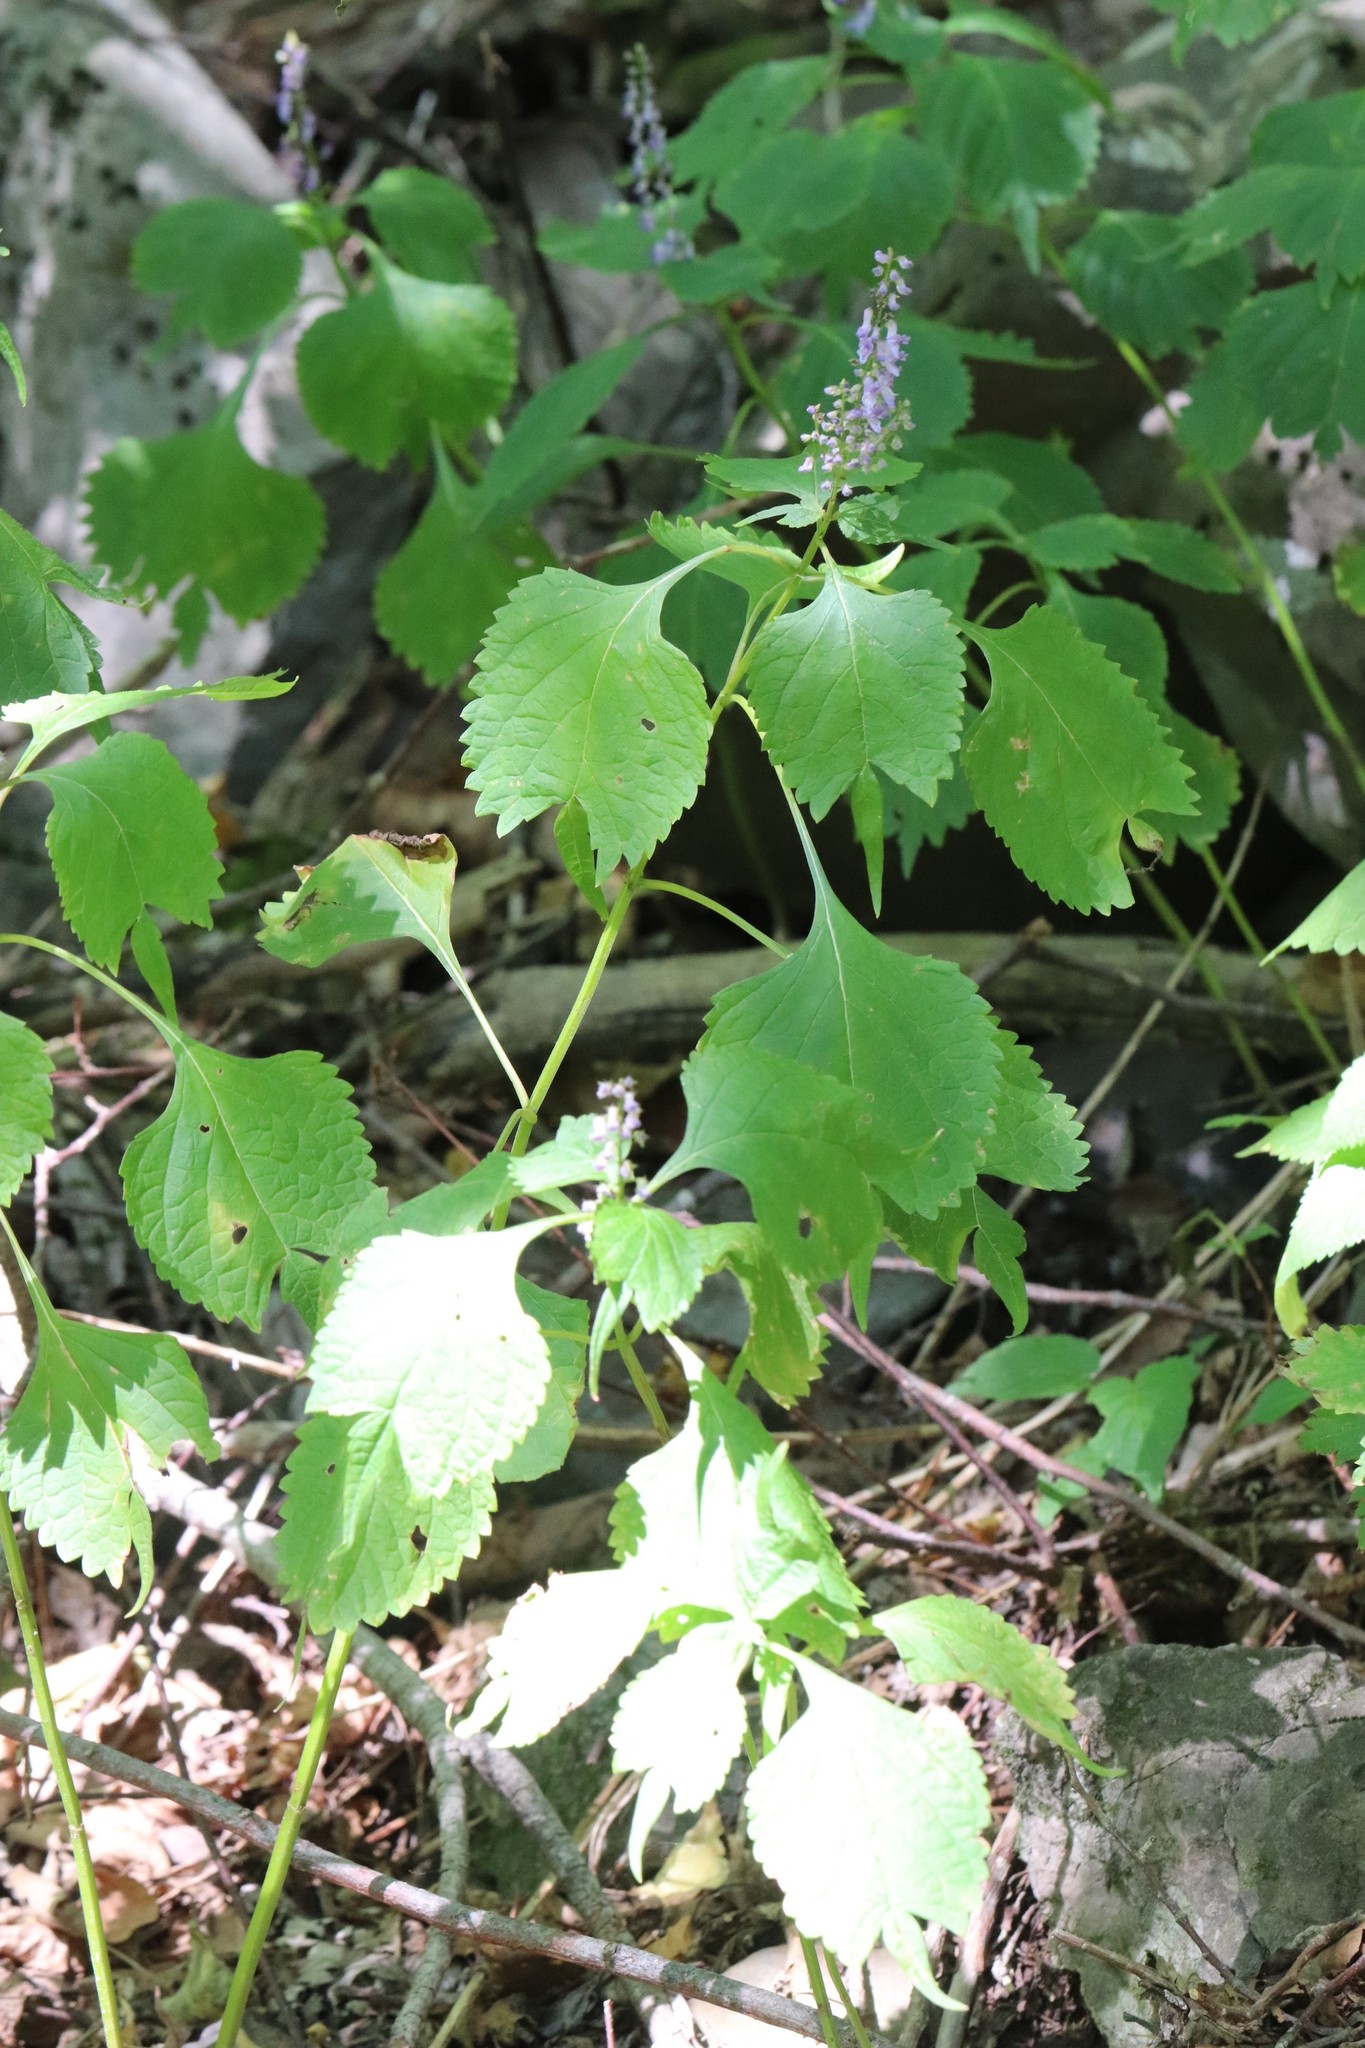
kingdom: Plantae
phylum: Tracheophyta
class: Magnoliopsida
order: Lamiales
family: Lamiaceae
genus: Isodon
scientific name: Isodon excisus
